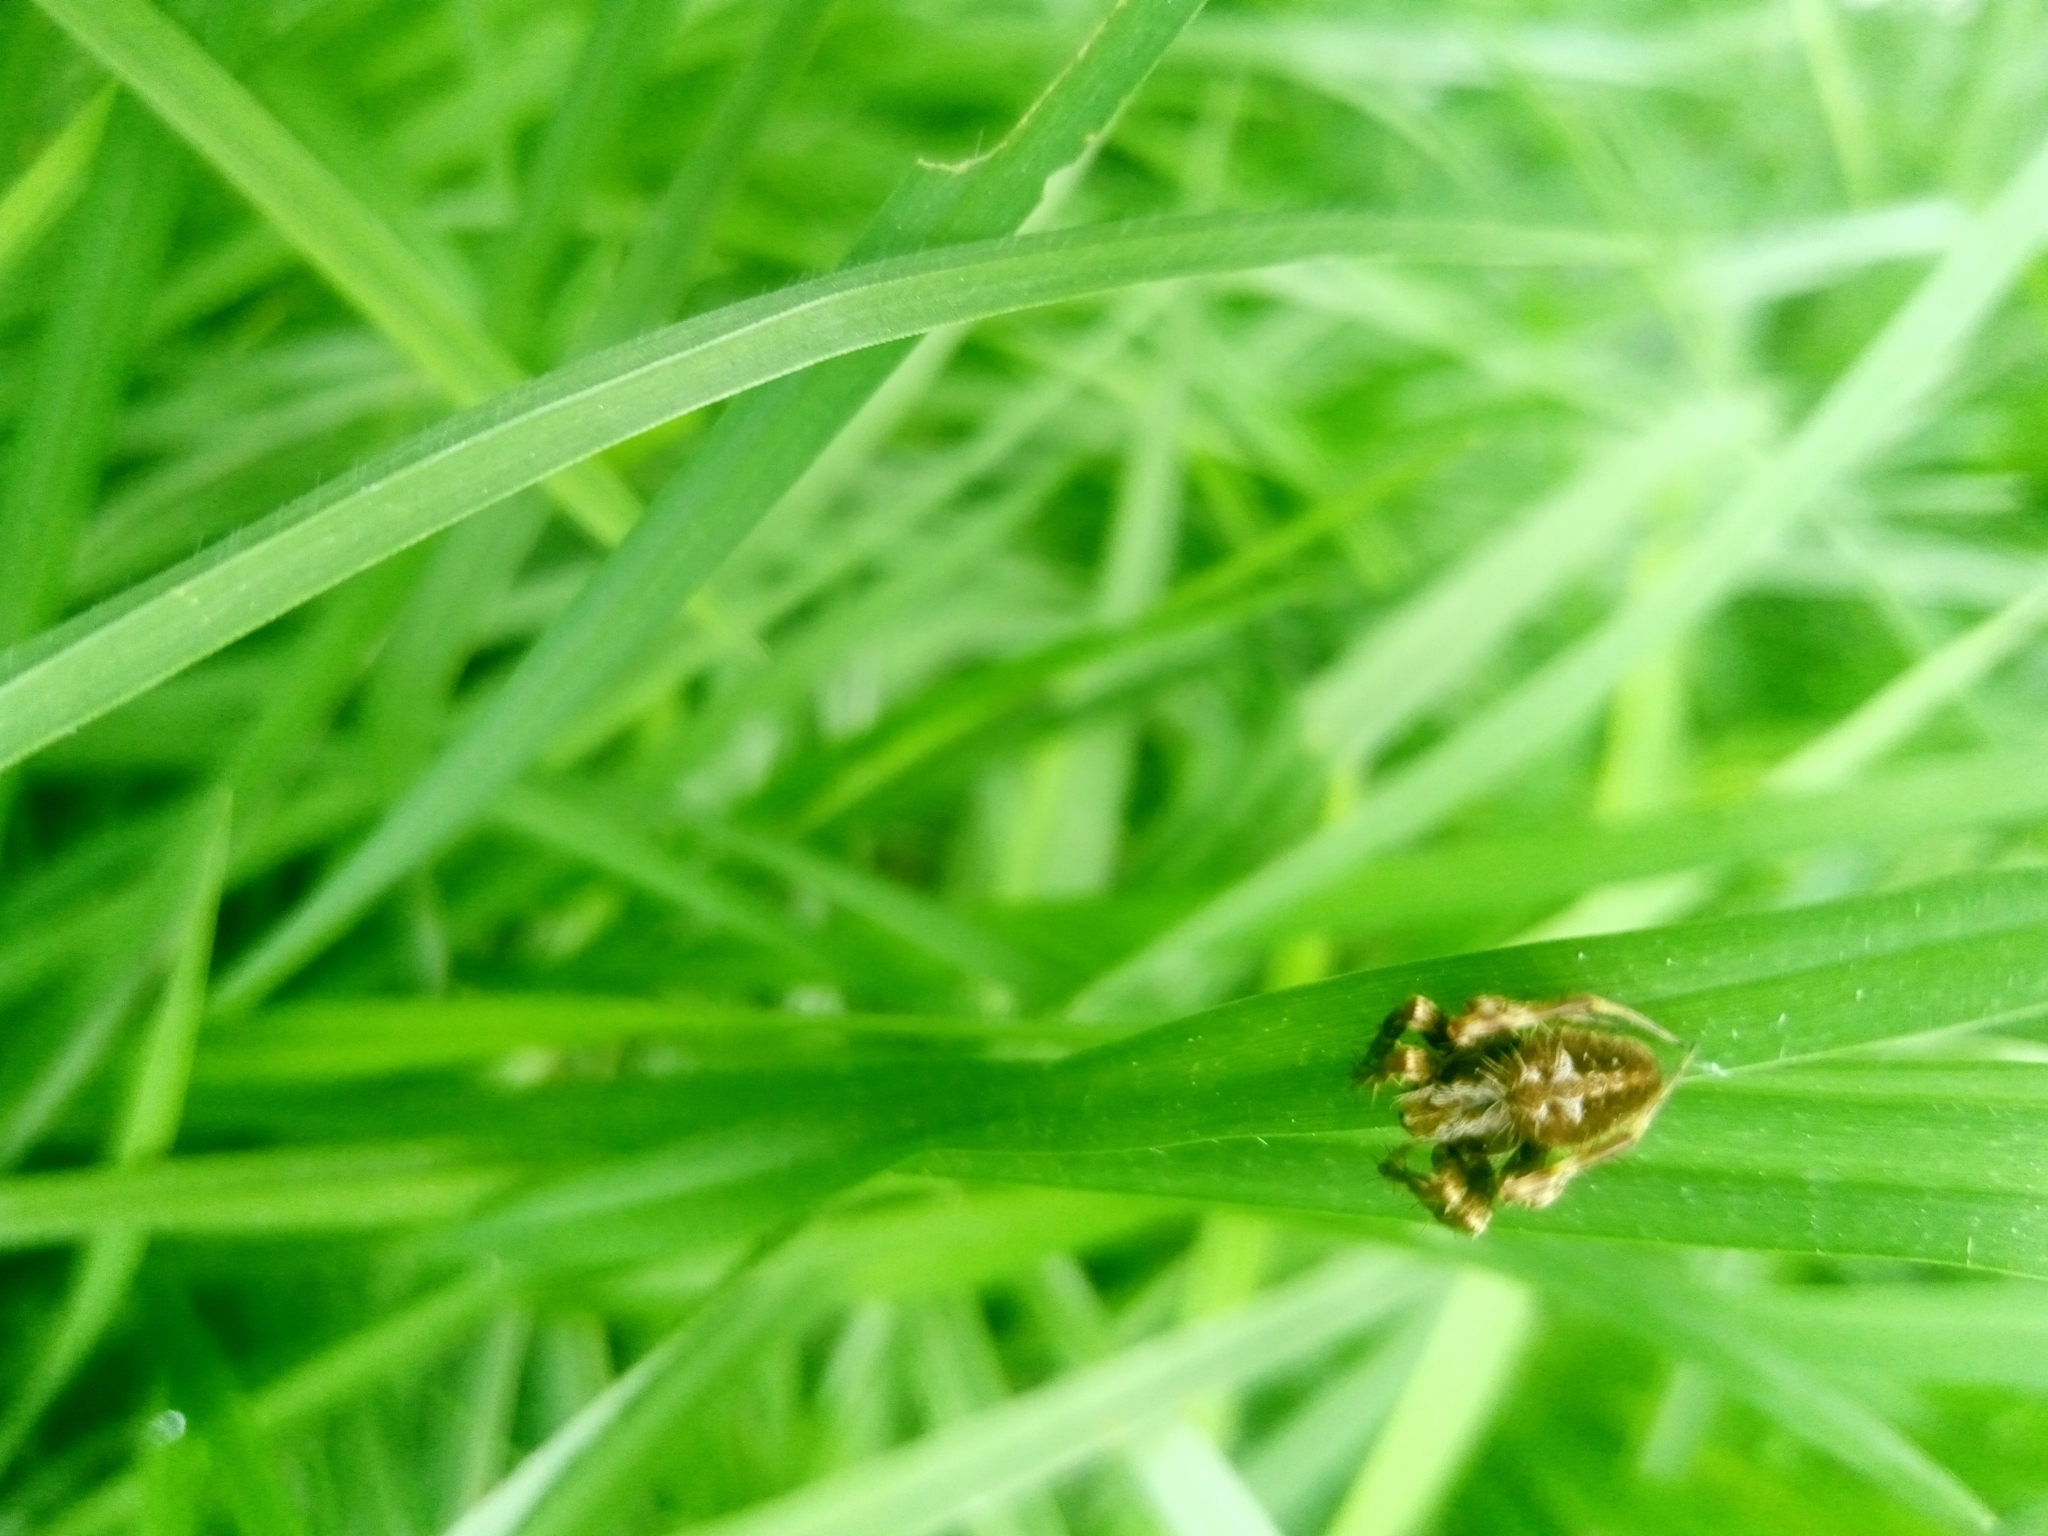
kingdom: Animalia
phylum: Arthropoda
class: Arachnida
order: Araneae
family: Araneidae
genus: Neoscona
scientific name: Neoscona arabesca
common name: Orb weavers
